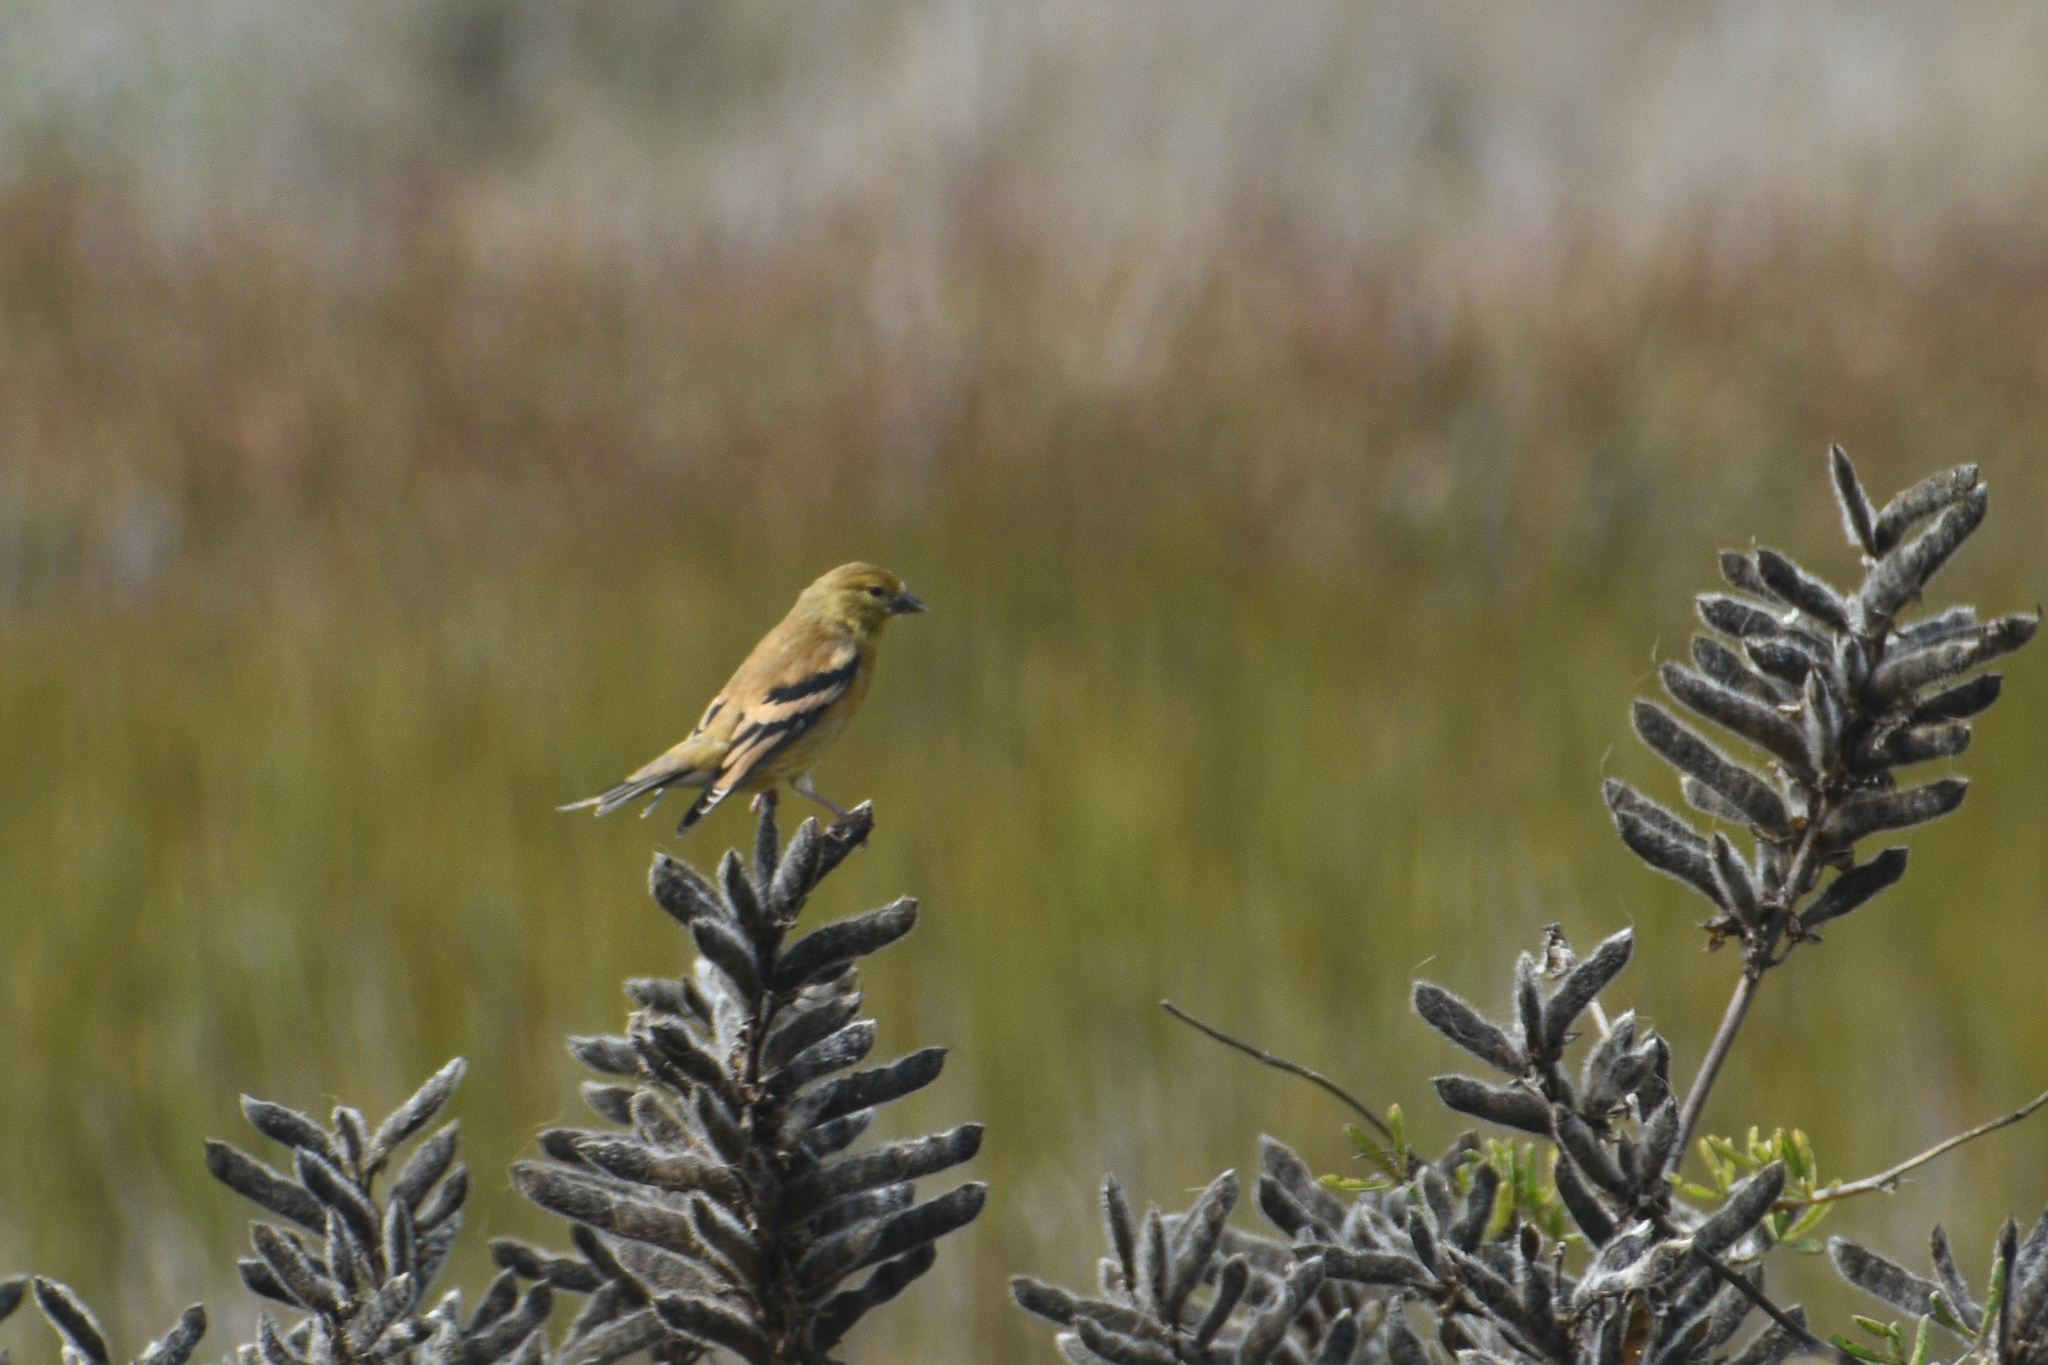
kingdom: Animalia
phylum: Chordata
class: Aves
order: Passeriformes
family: Fringillidae
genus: Spinus
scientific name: Spinus tristis
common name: American goldfinch
